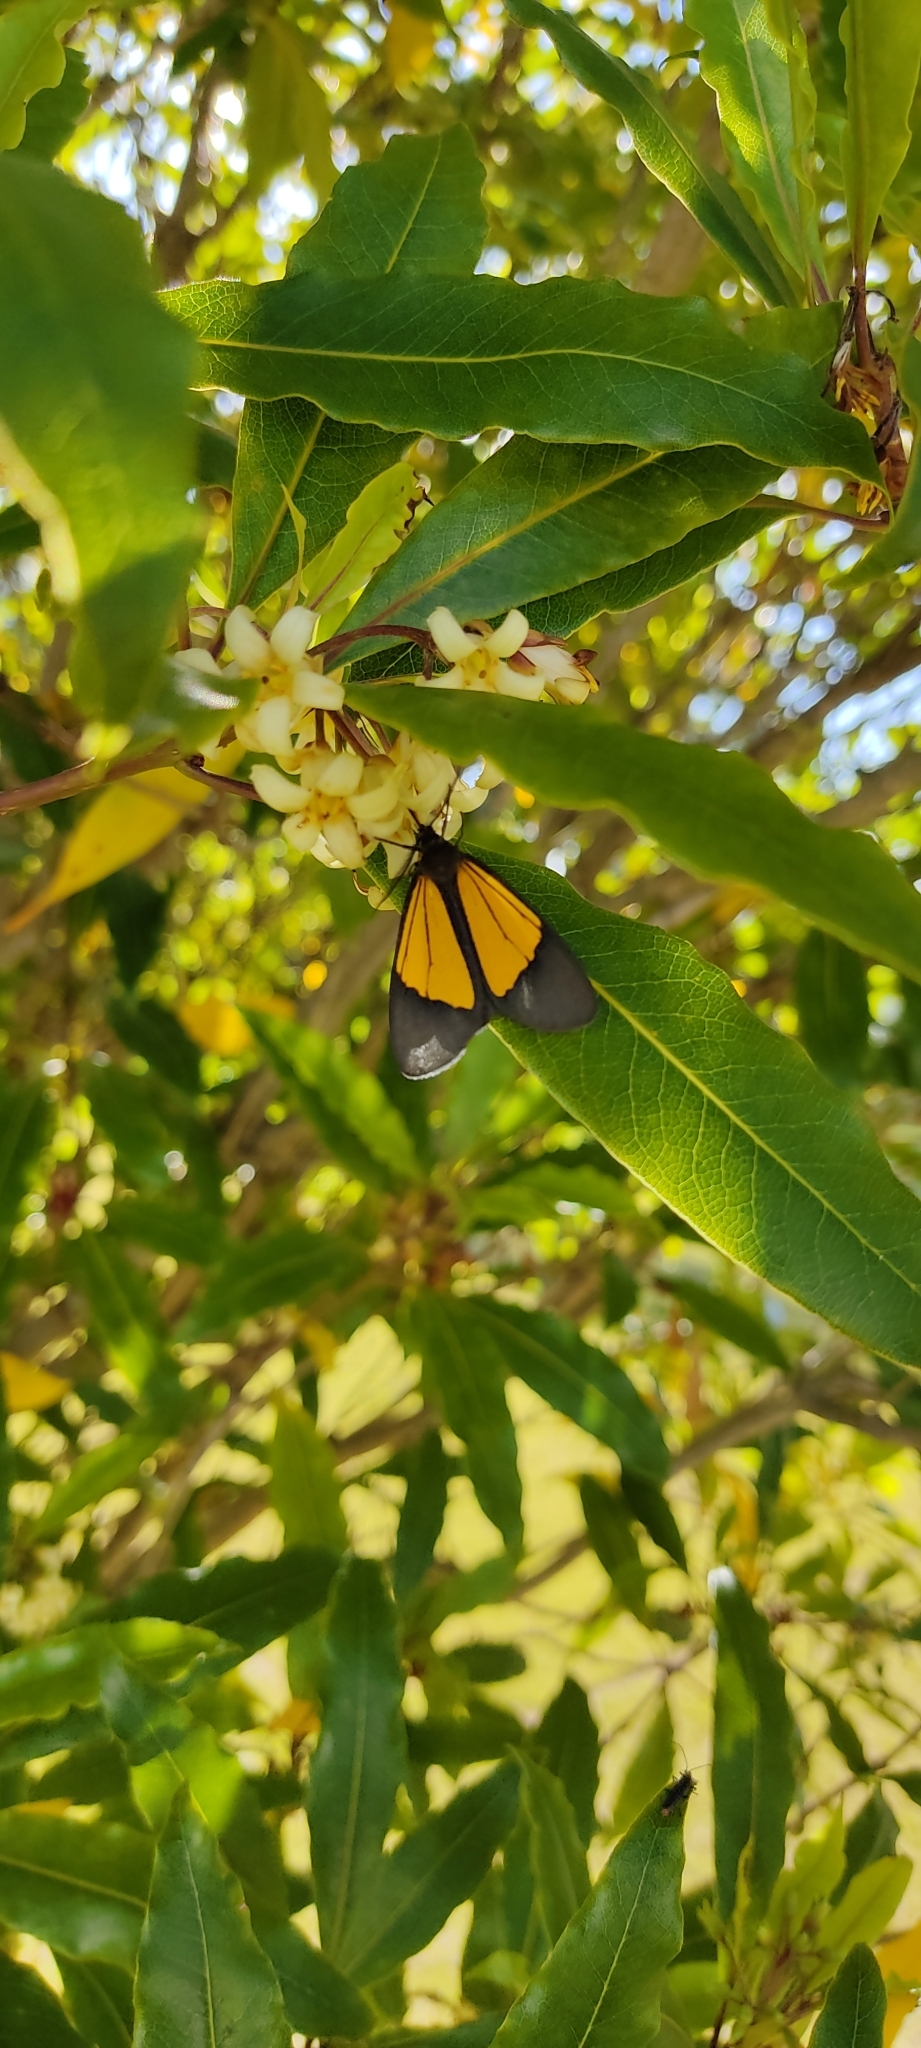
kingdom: Animalia
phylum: Arthropoda
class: Insecta
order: Lepidoptera
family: Notodontidae
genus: Scea
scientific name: Scea servula
